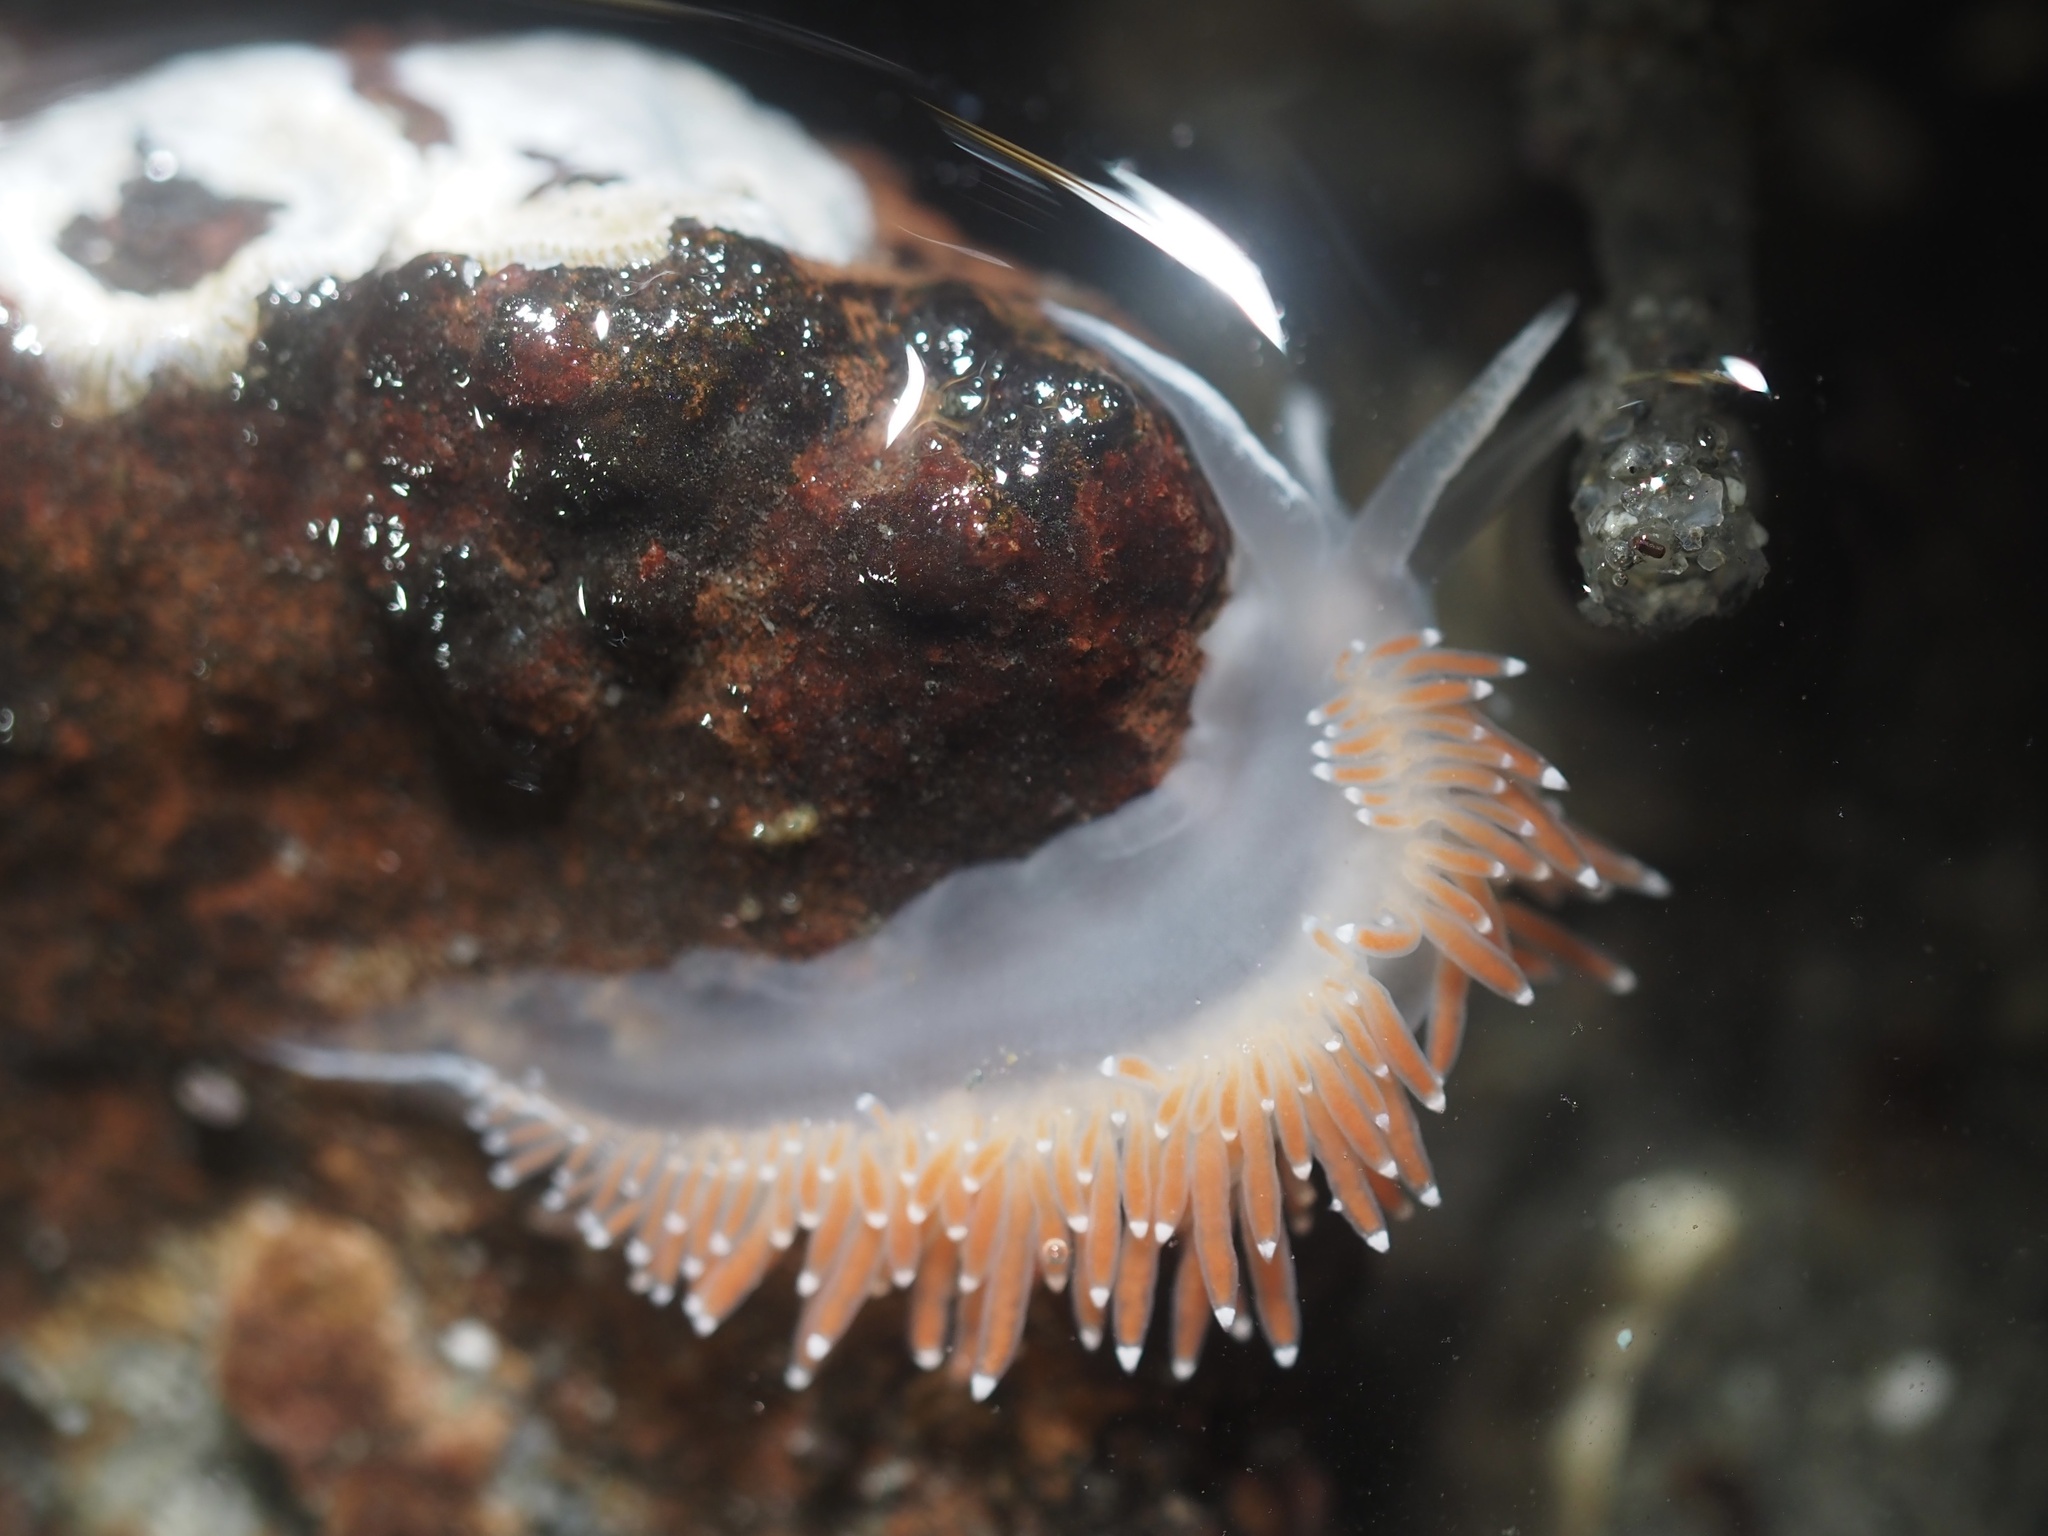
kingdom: Animalia
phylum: Mollusca
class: Gastropoda
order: Nudibranchia
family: Coryphellidae
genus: Coryphella
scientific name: Coryphella verrucosa
